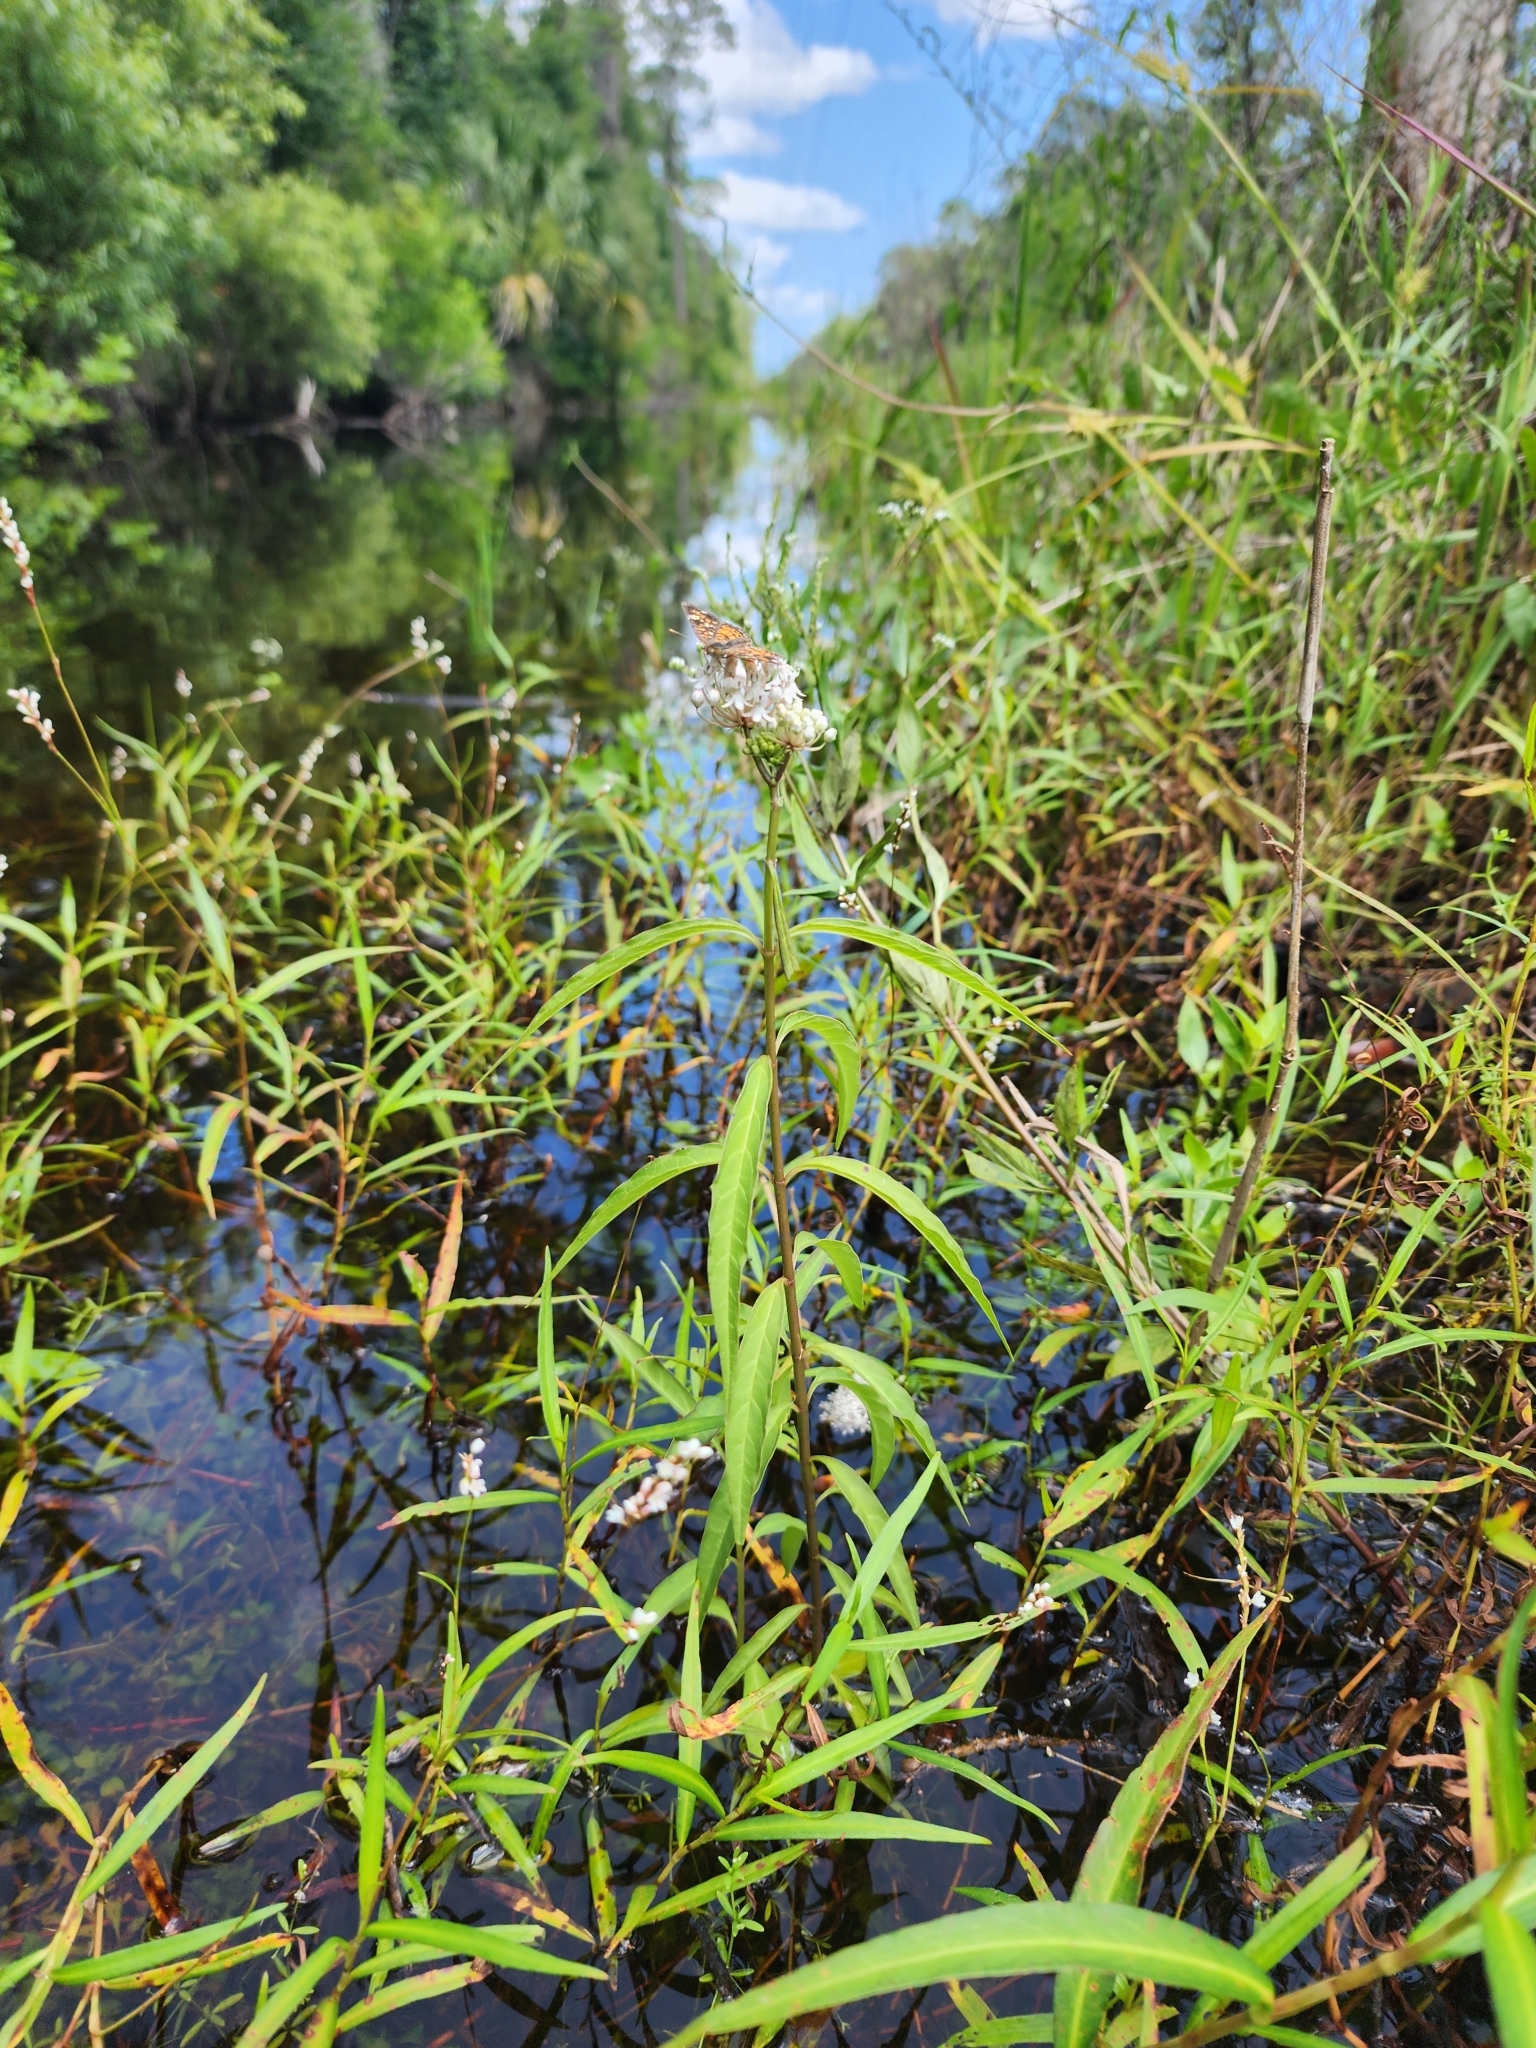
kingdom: Plantae
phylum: Tracheophyta
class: Magnoliopsida
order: Gentianales
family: Apocynaceae
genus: Asclepias
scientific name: Asclepias perennis
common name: Smooth-seed milkweed
